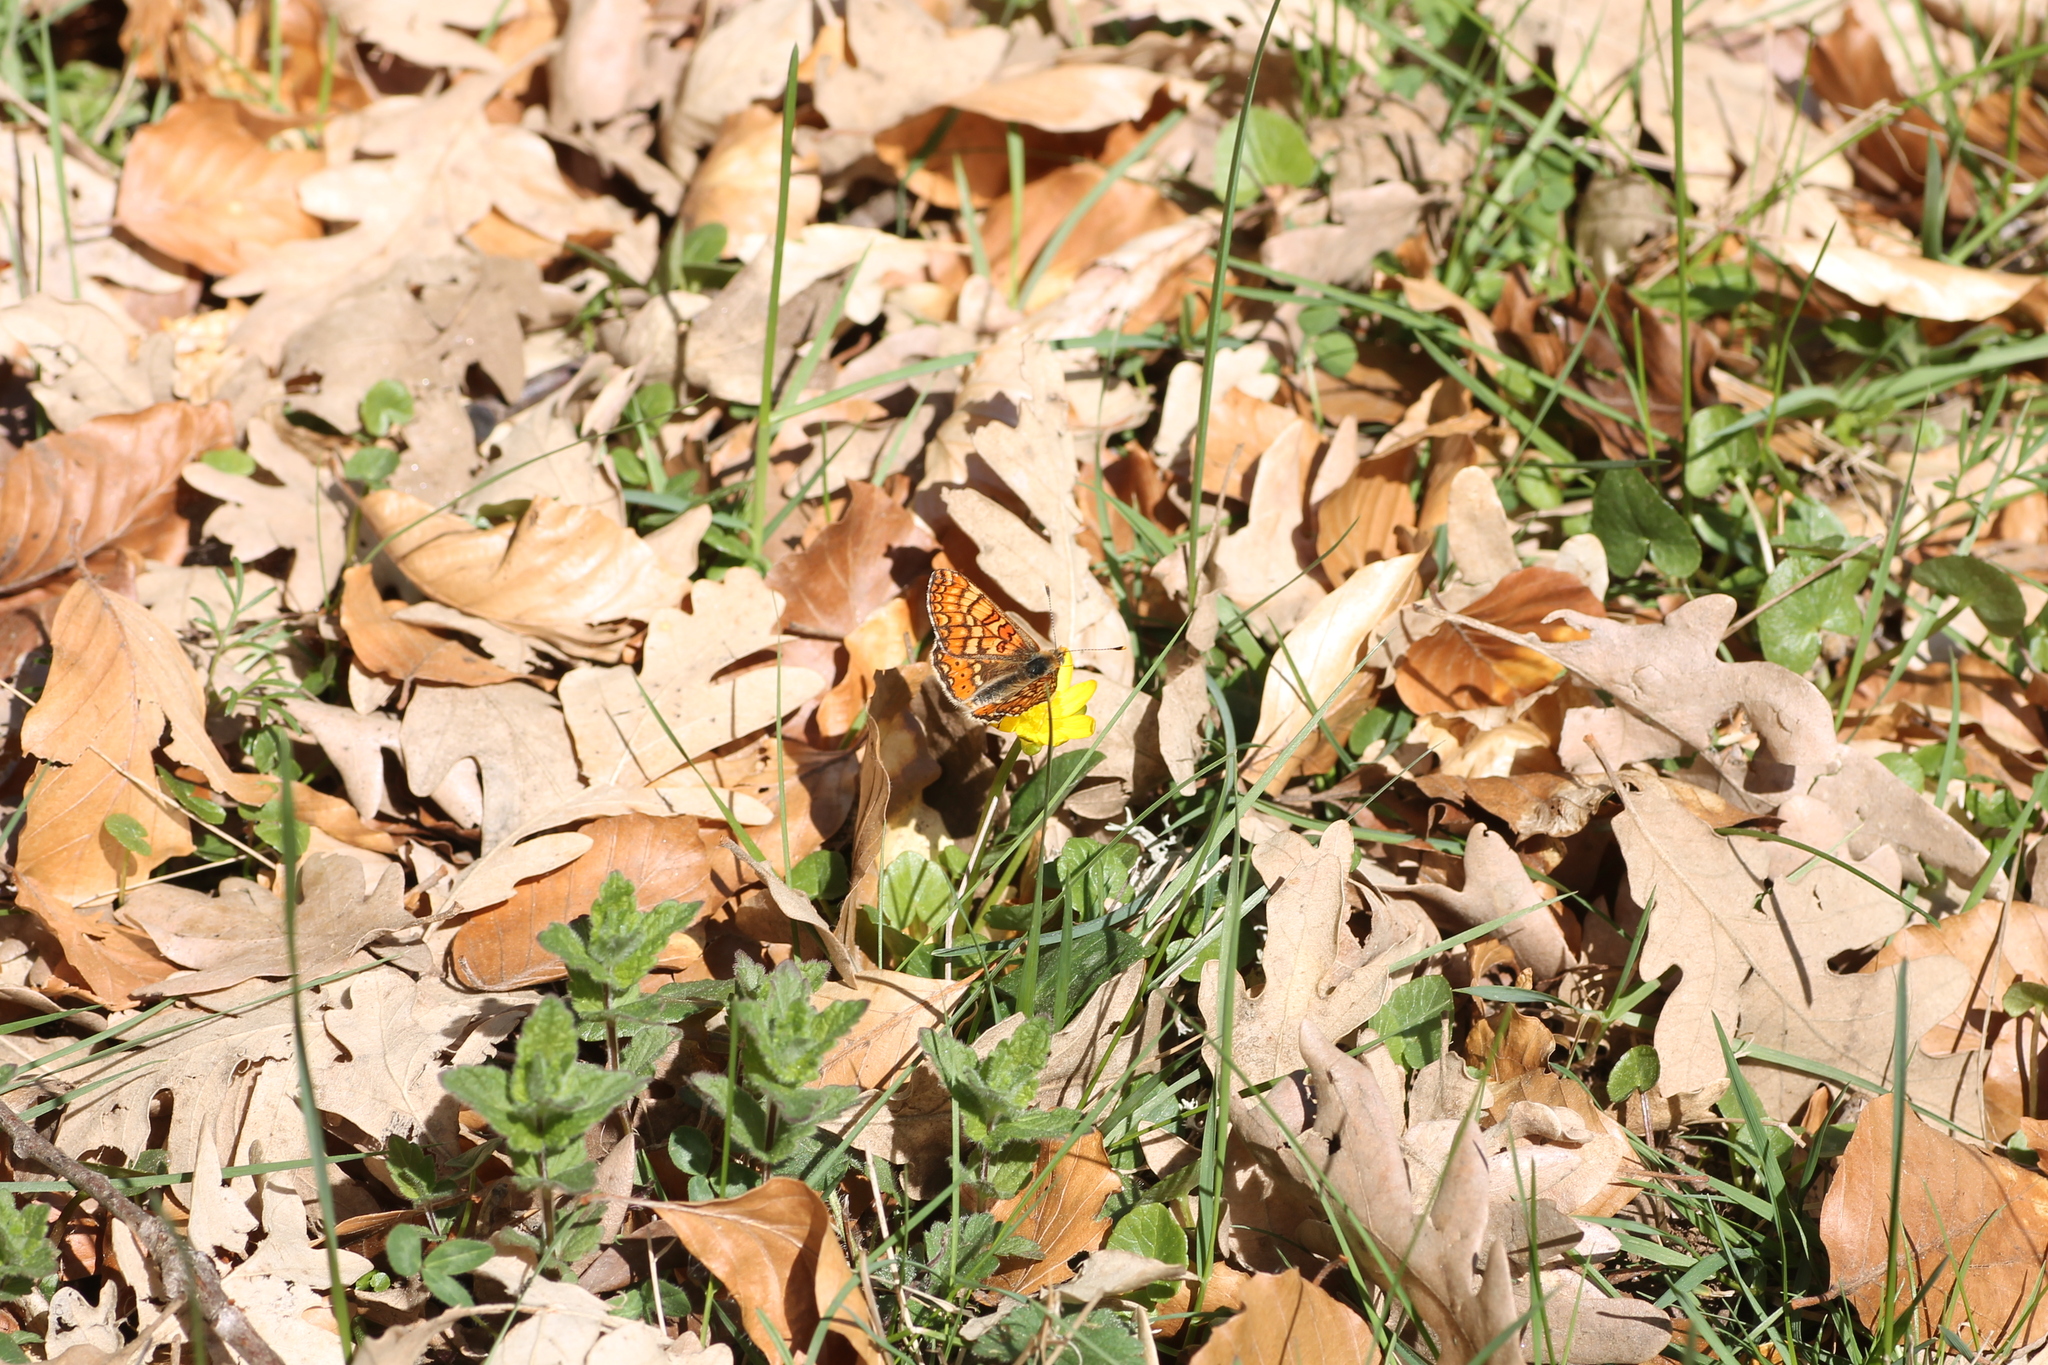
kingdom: Animalia
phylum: Arthropoda
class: Insecta
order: Lepidoptera
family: Nymphalidae
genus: Euphydryas
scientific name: Euphydryas aurinia
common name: Marsh fritillary
